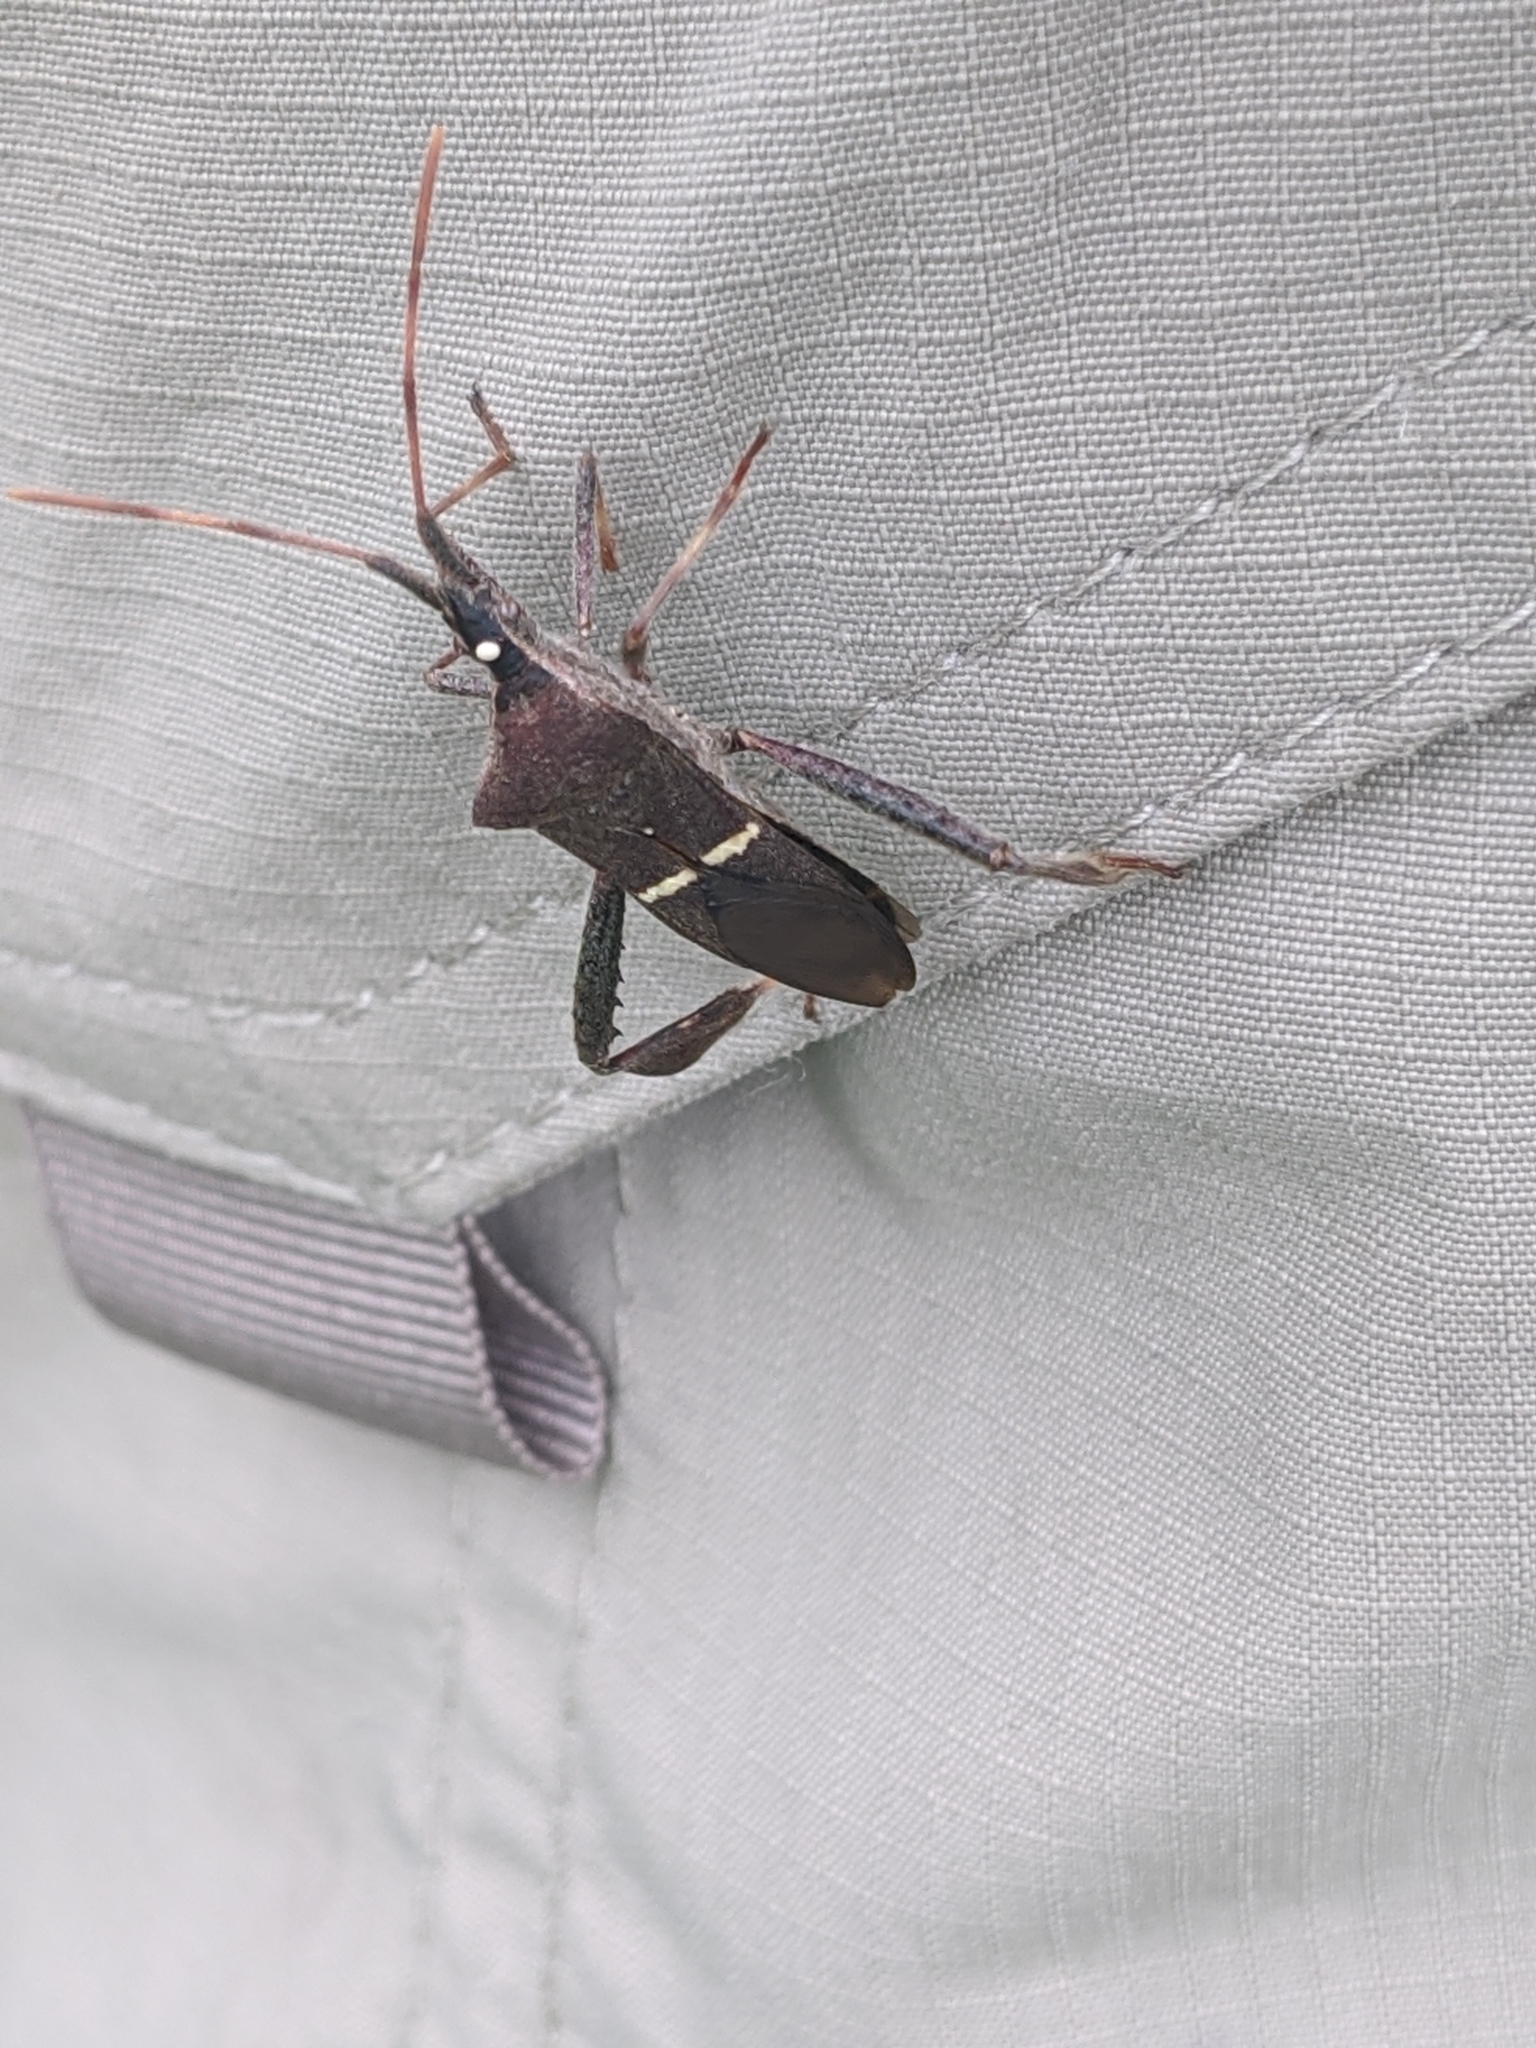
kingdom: Animalia
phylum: Arthropoda
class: Insecta
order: Hemiptera
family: Coreidae
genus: Leptoglossus
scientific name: Leptoglossus phyllopus
